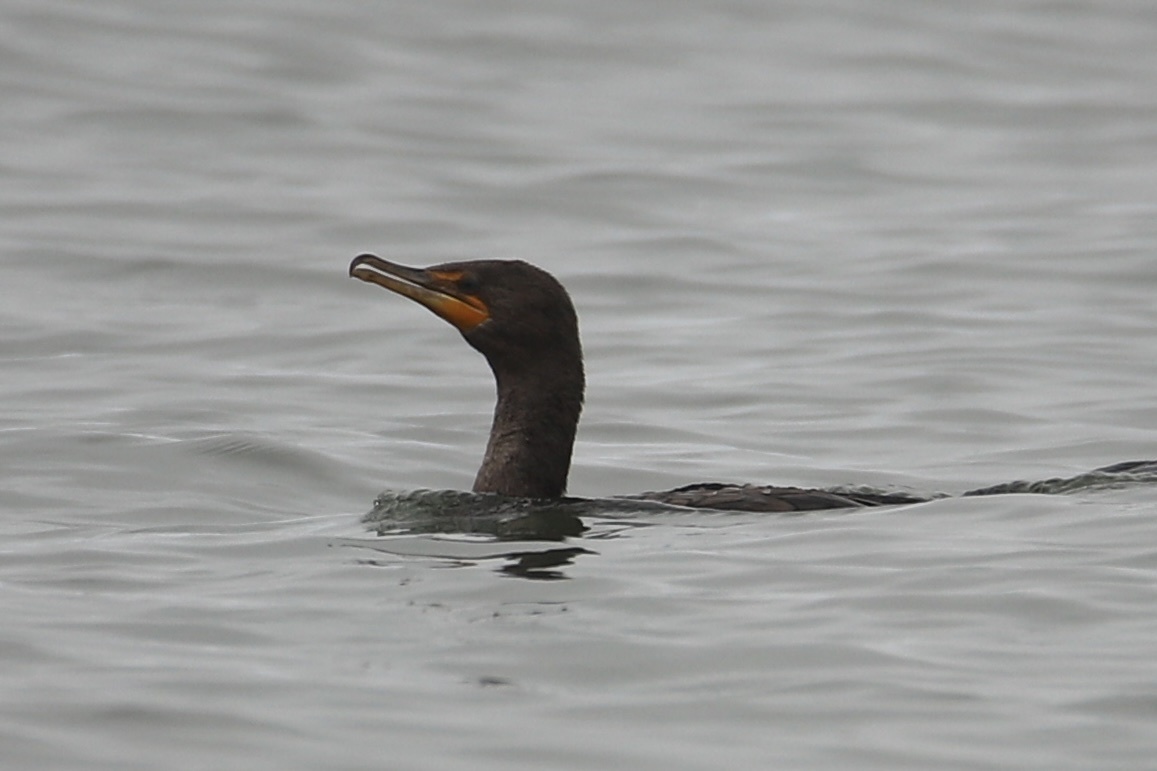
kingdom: Animalia
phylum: Chordata
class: Aves
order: Suliformes
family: Phalacrocoracidae
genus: Phalacrocorax
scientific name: Phalacrocorax auritus
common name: Double-crested cormorant
